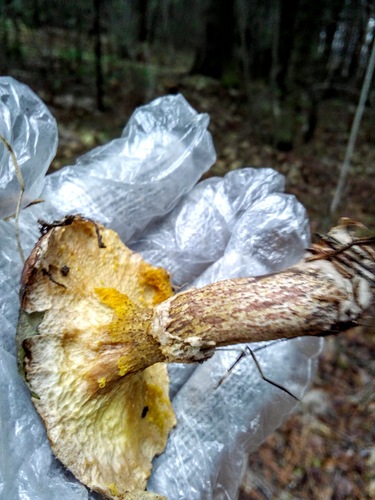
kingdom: Fungi
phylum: Basidiomycota
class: Agaricomycetes
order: Boletales
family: Suillaceae
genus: Suillus
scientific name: Suillus americanus
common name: Chicken fat mushroom
